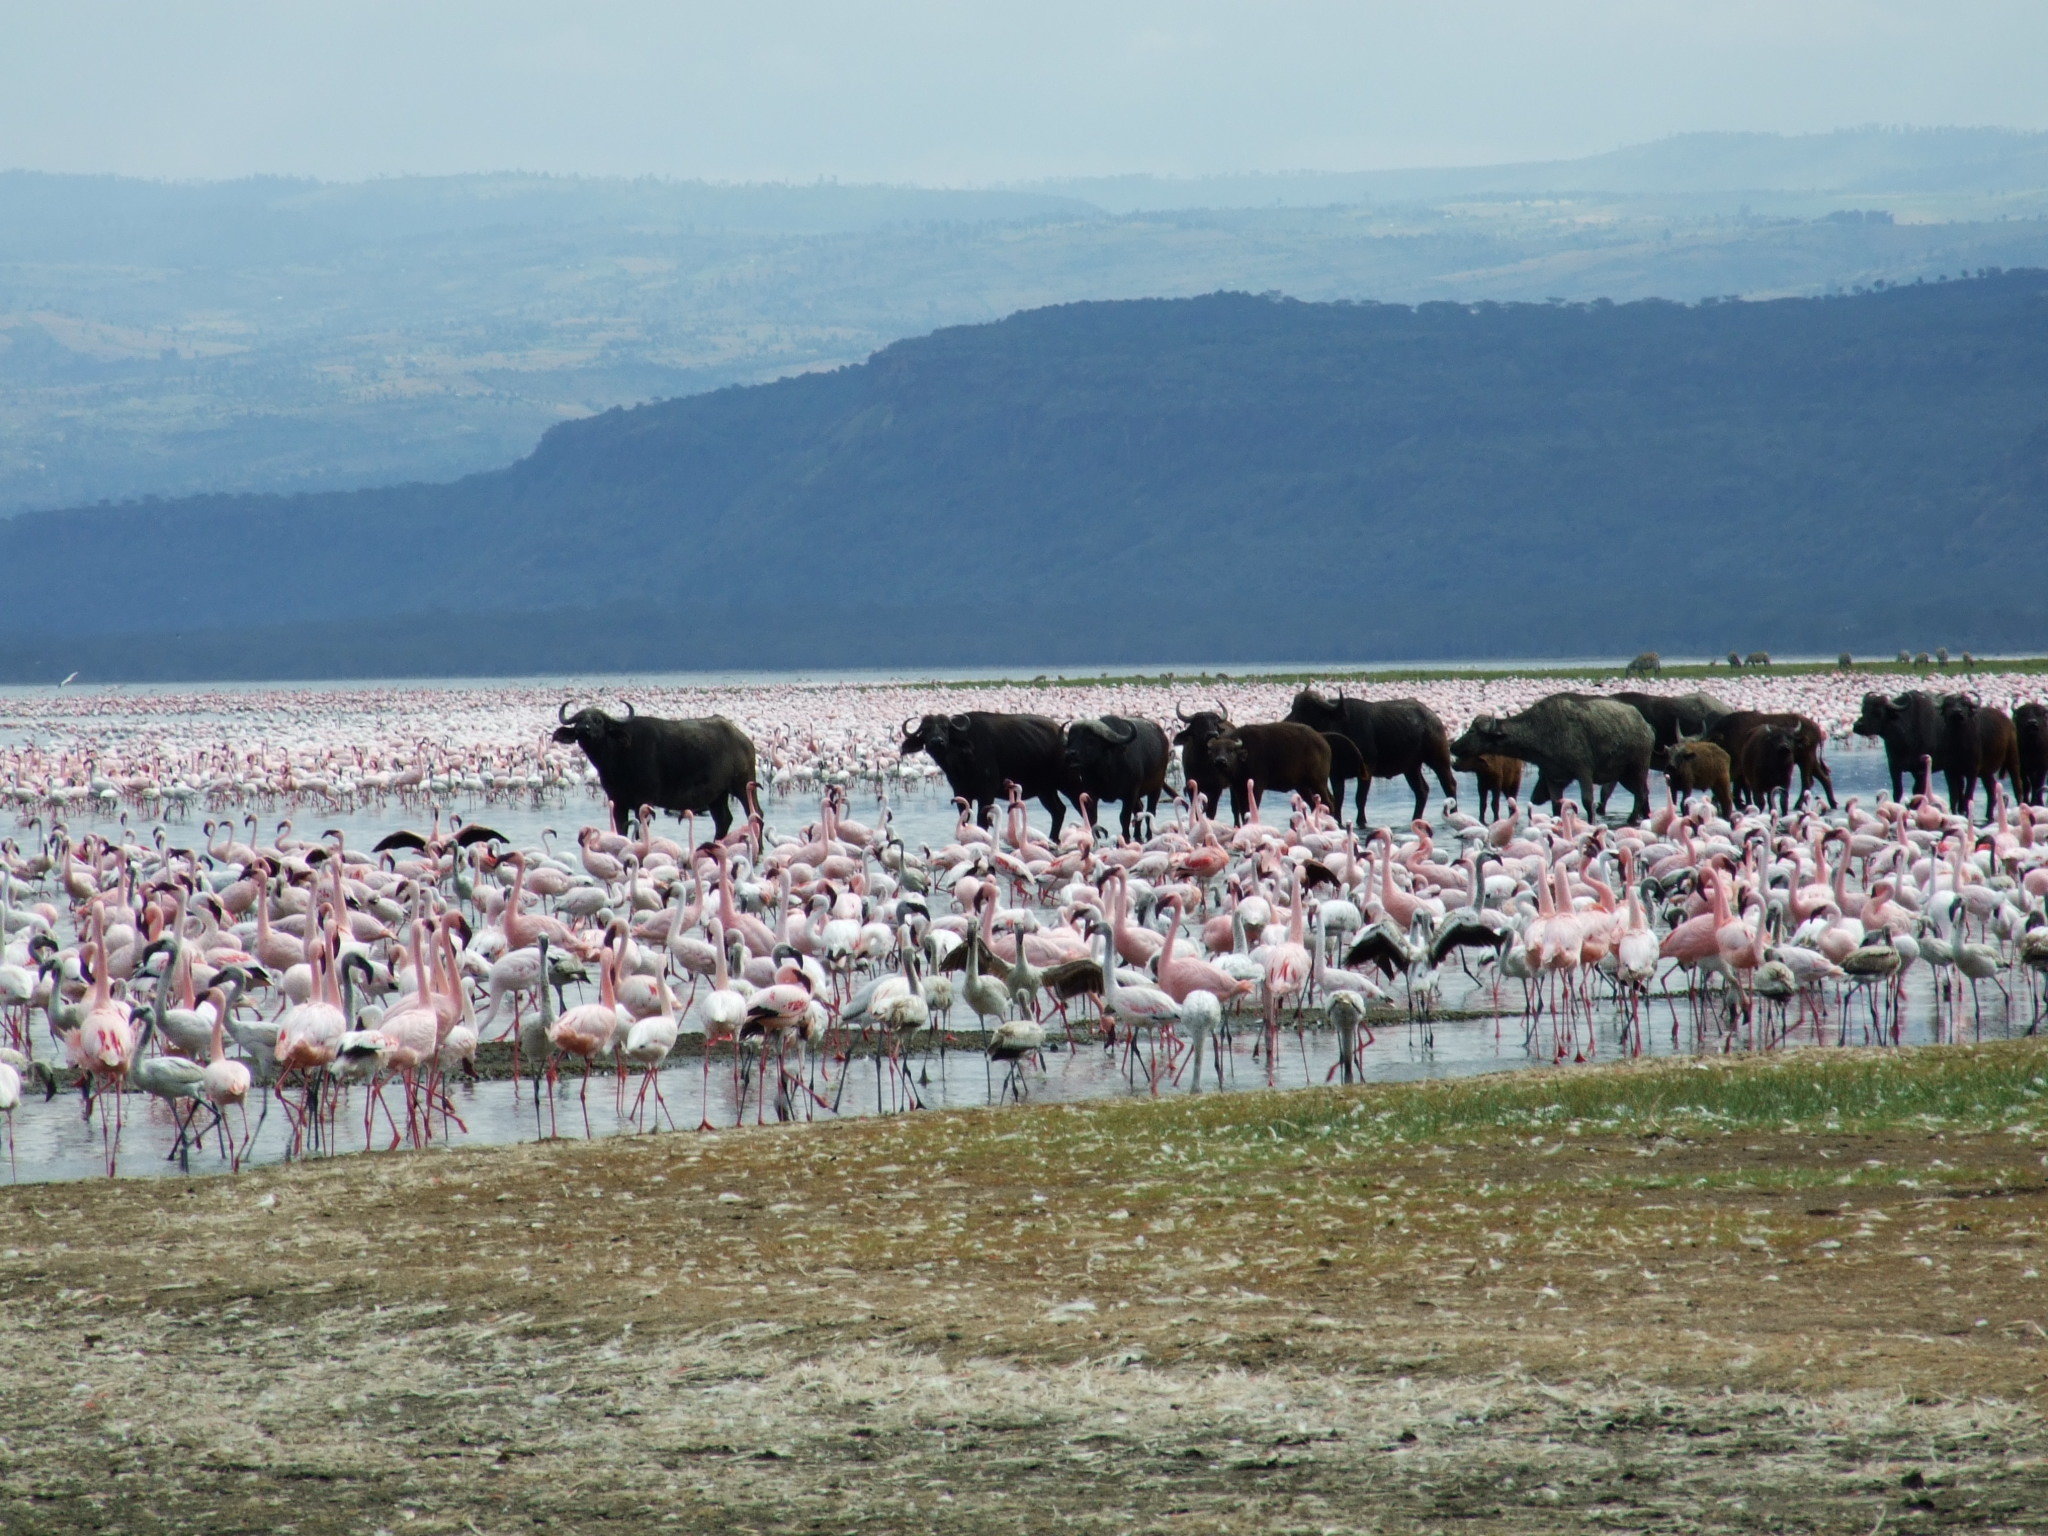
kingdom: Animalia
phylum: Chordata
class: Mammalia
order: Artiodactyla
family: Bovidae
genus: Syncerus
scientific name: Syncerus caffer
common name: African buffalo
